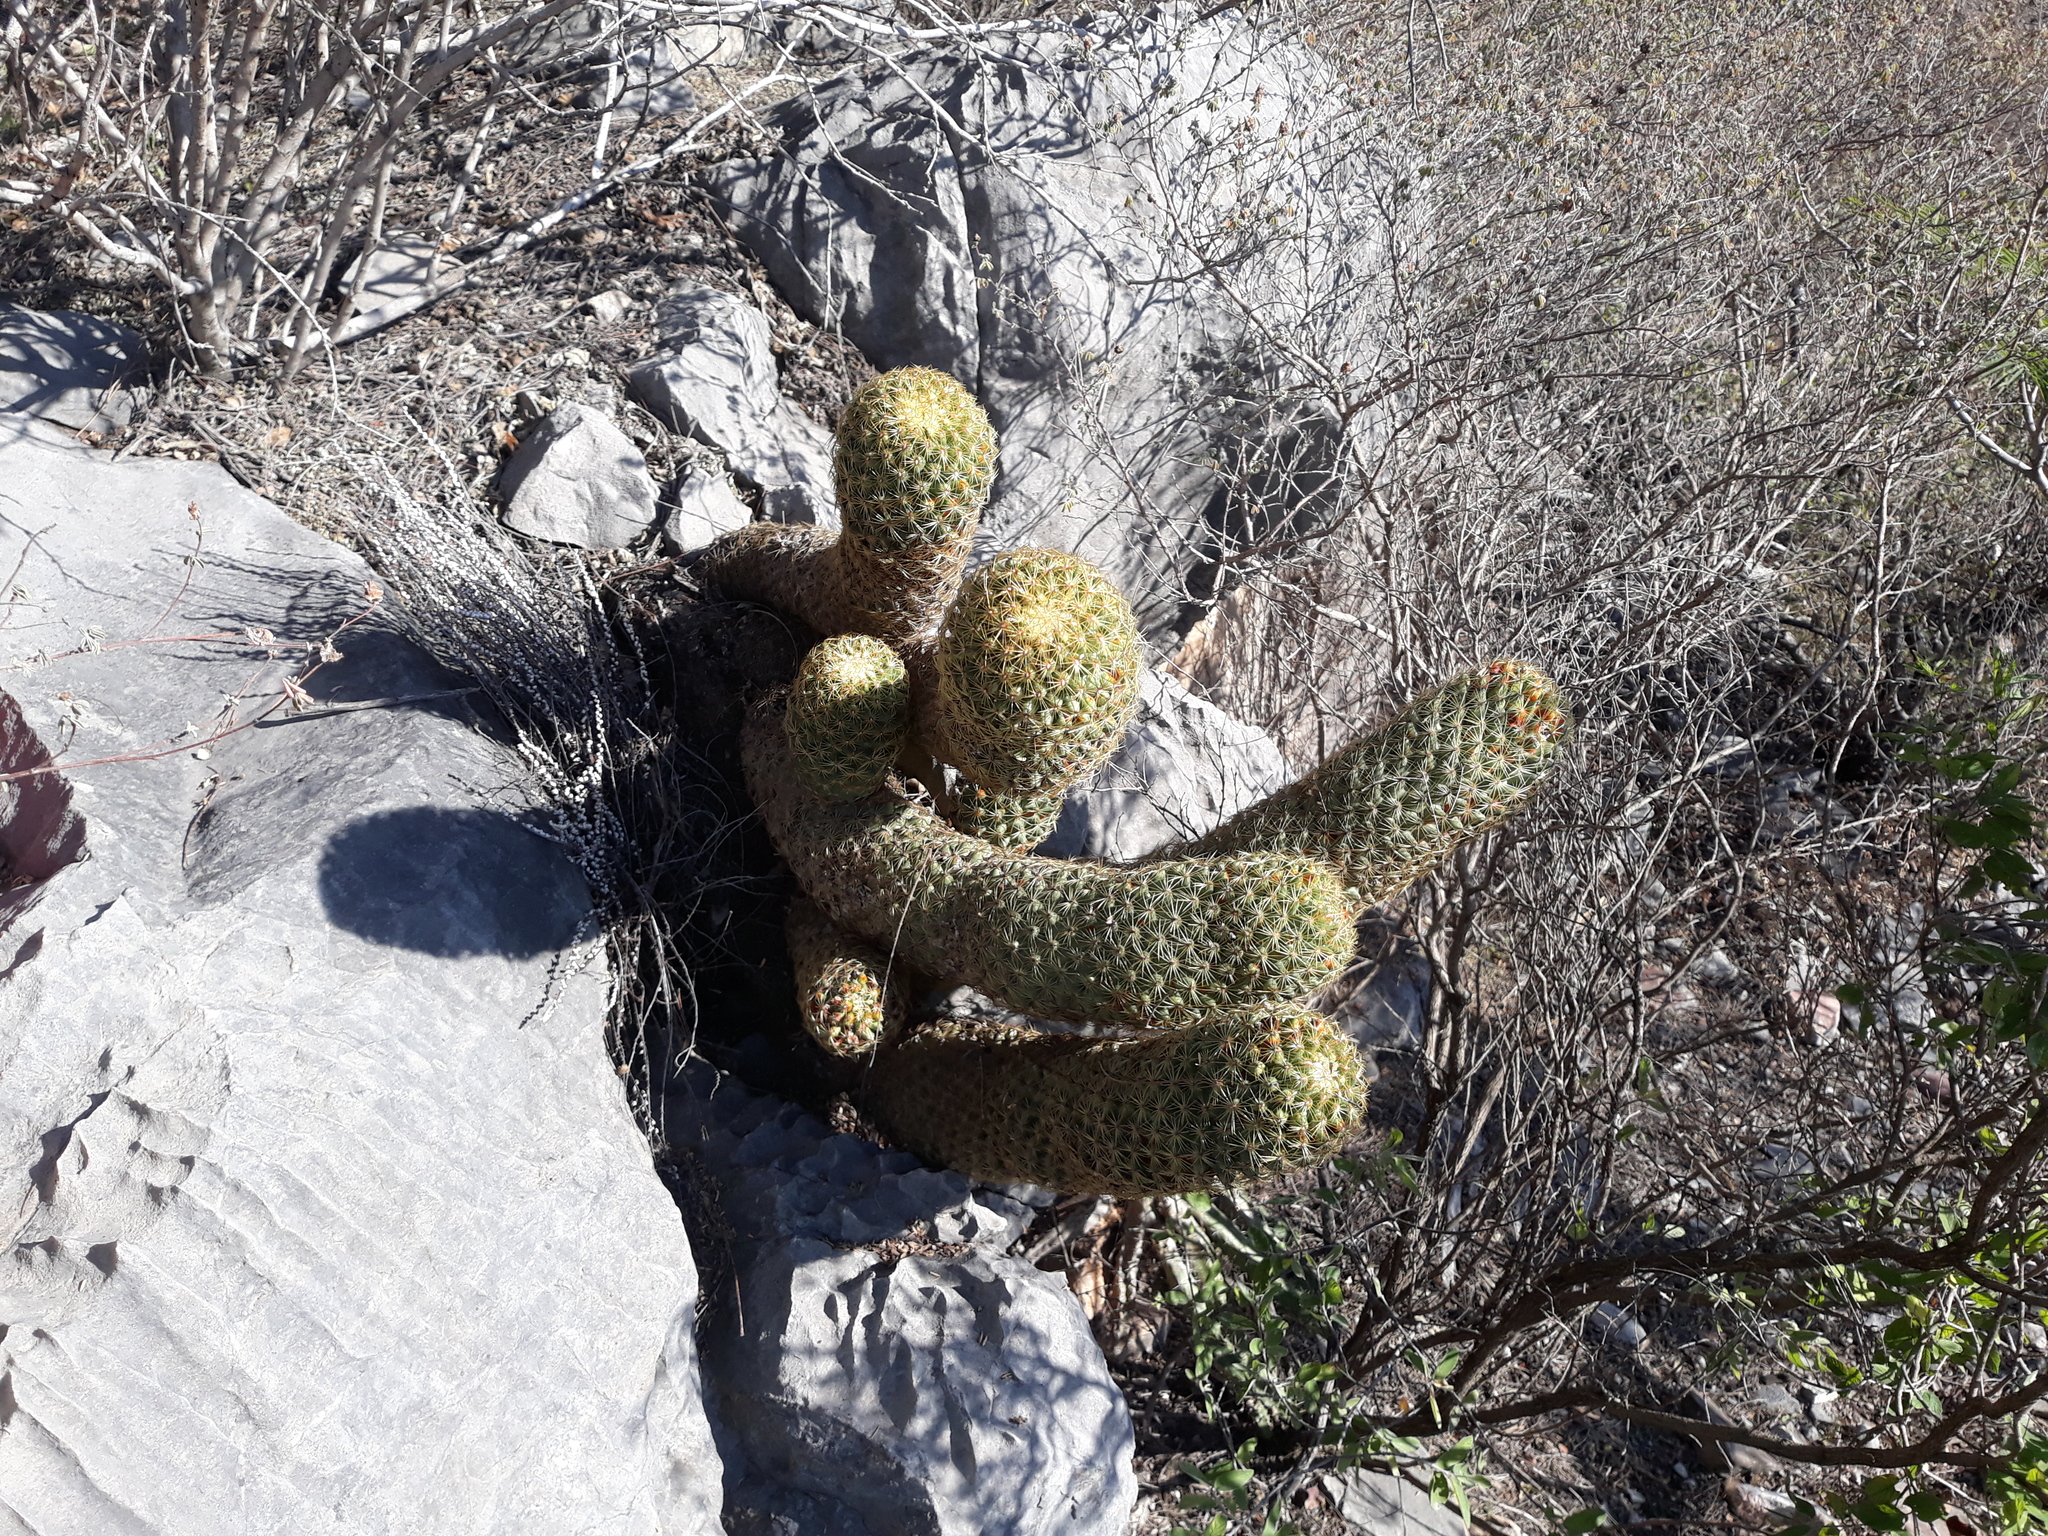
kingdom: Plantae
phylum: Tracheophyta
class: Magnoliopsida
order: Caryophyllales
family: Cactaceae
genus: Coryphantha
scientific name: Coryphantha erecta
